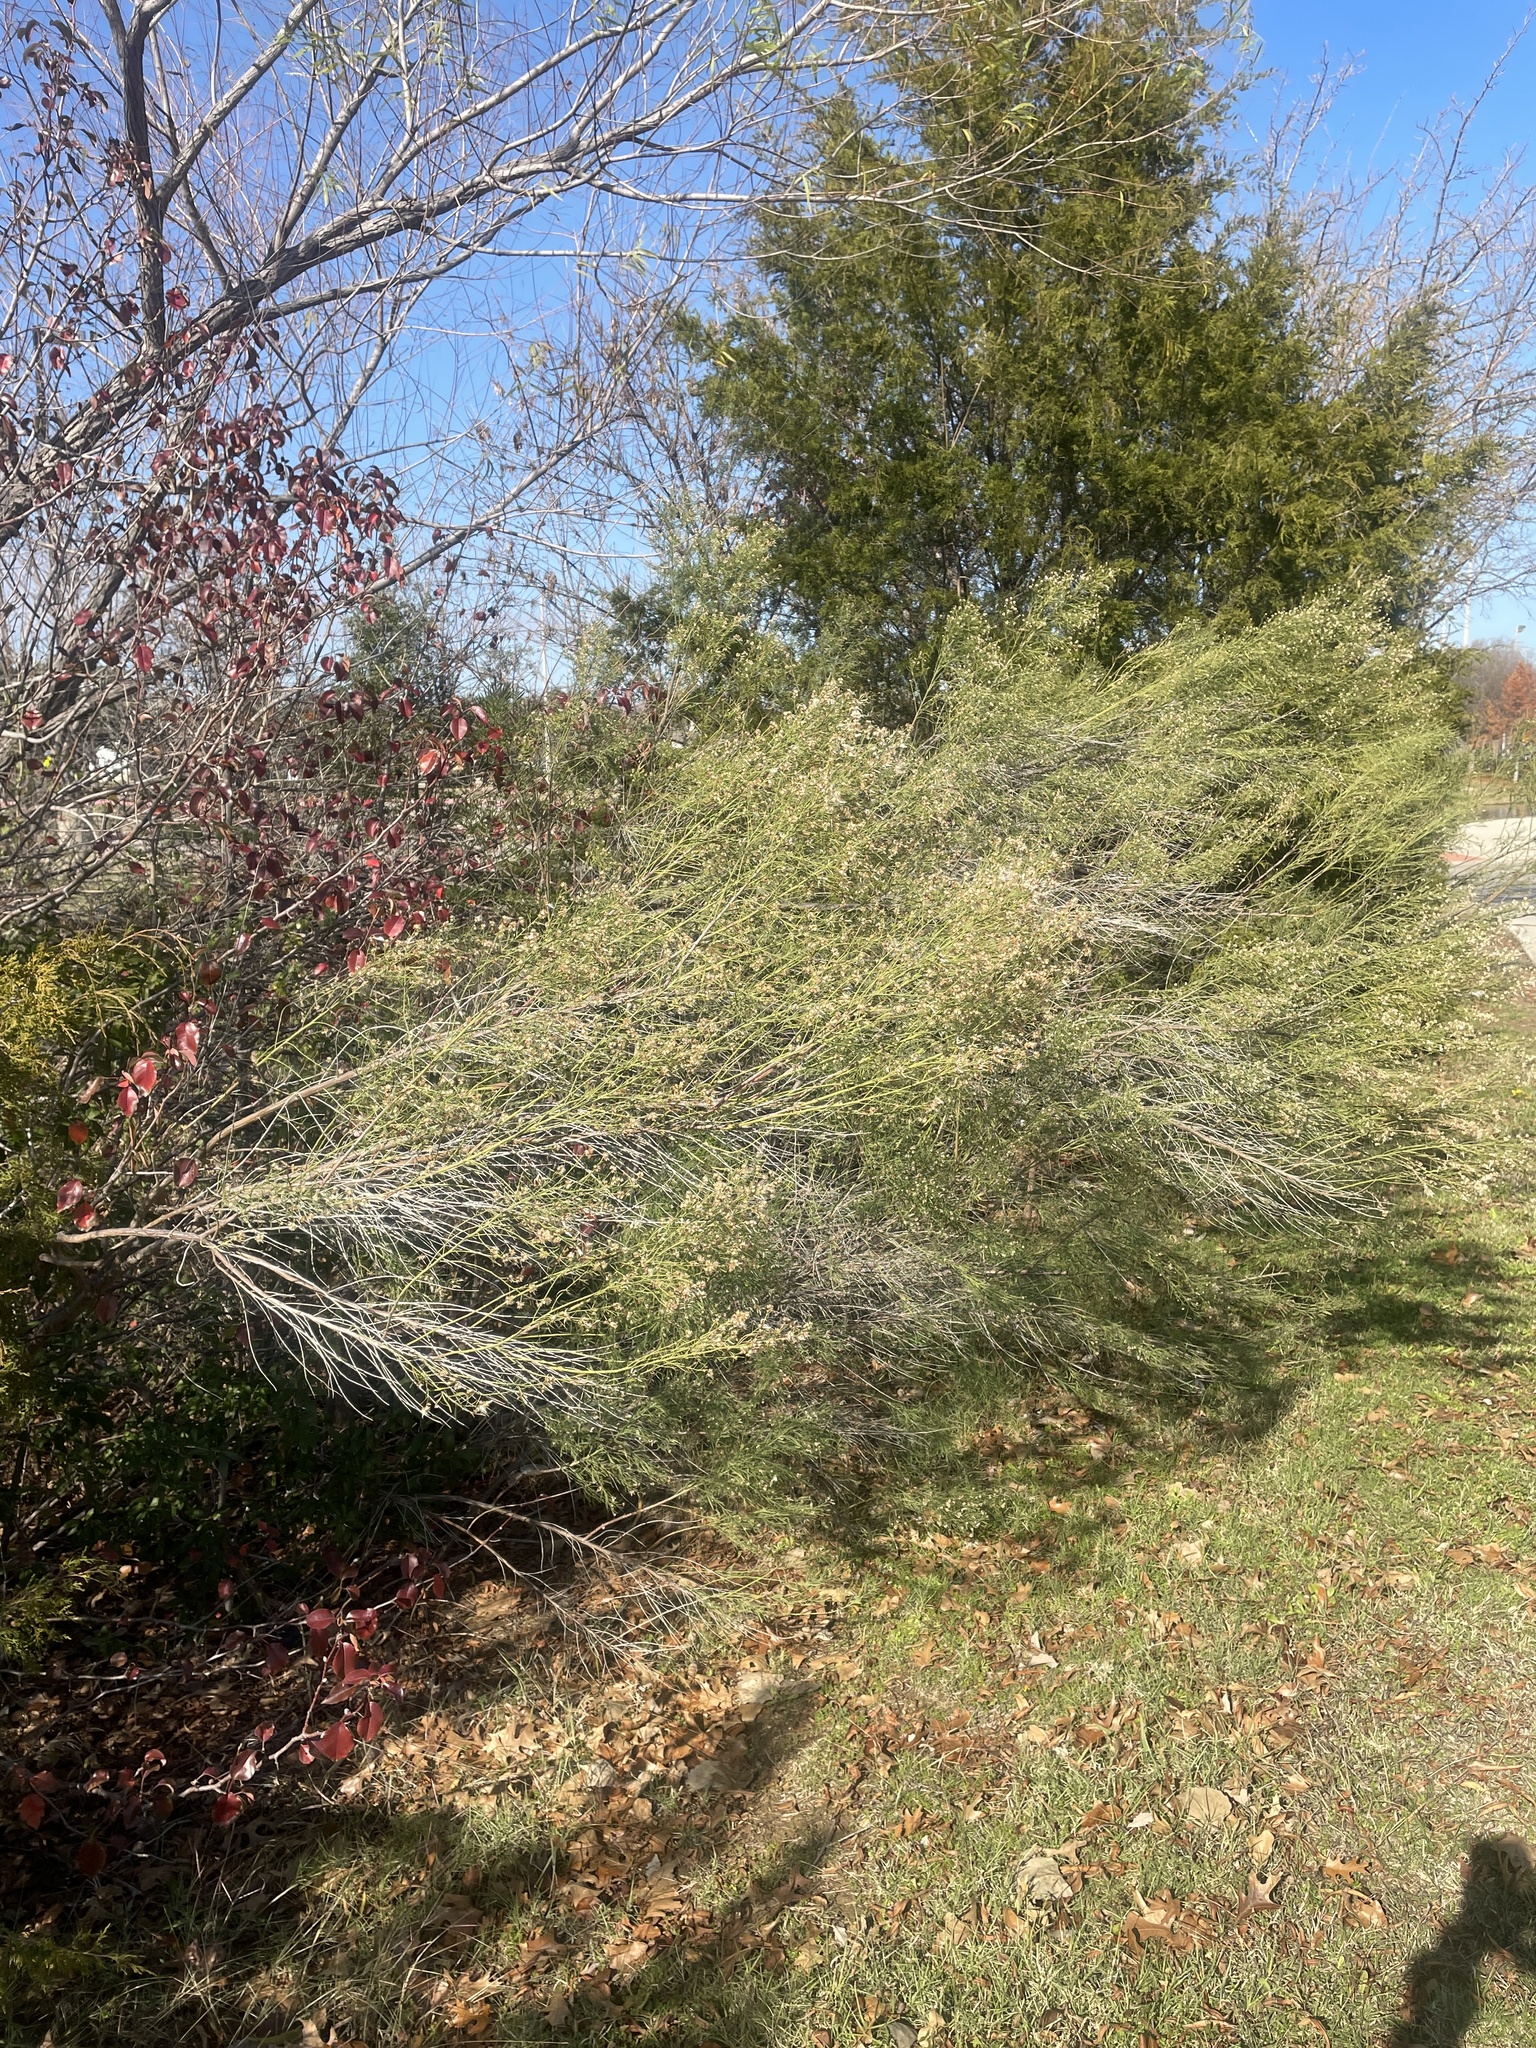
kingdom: Plantae
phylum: Tracheophyta
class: Magnoliopsida
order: Asterales
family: Asteraceae
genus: Baccharis
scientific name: Baccharis neglecta
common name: Roosevelt-weed
